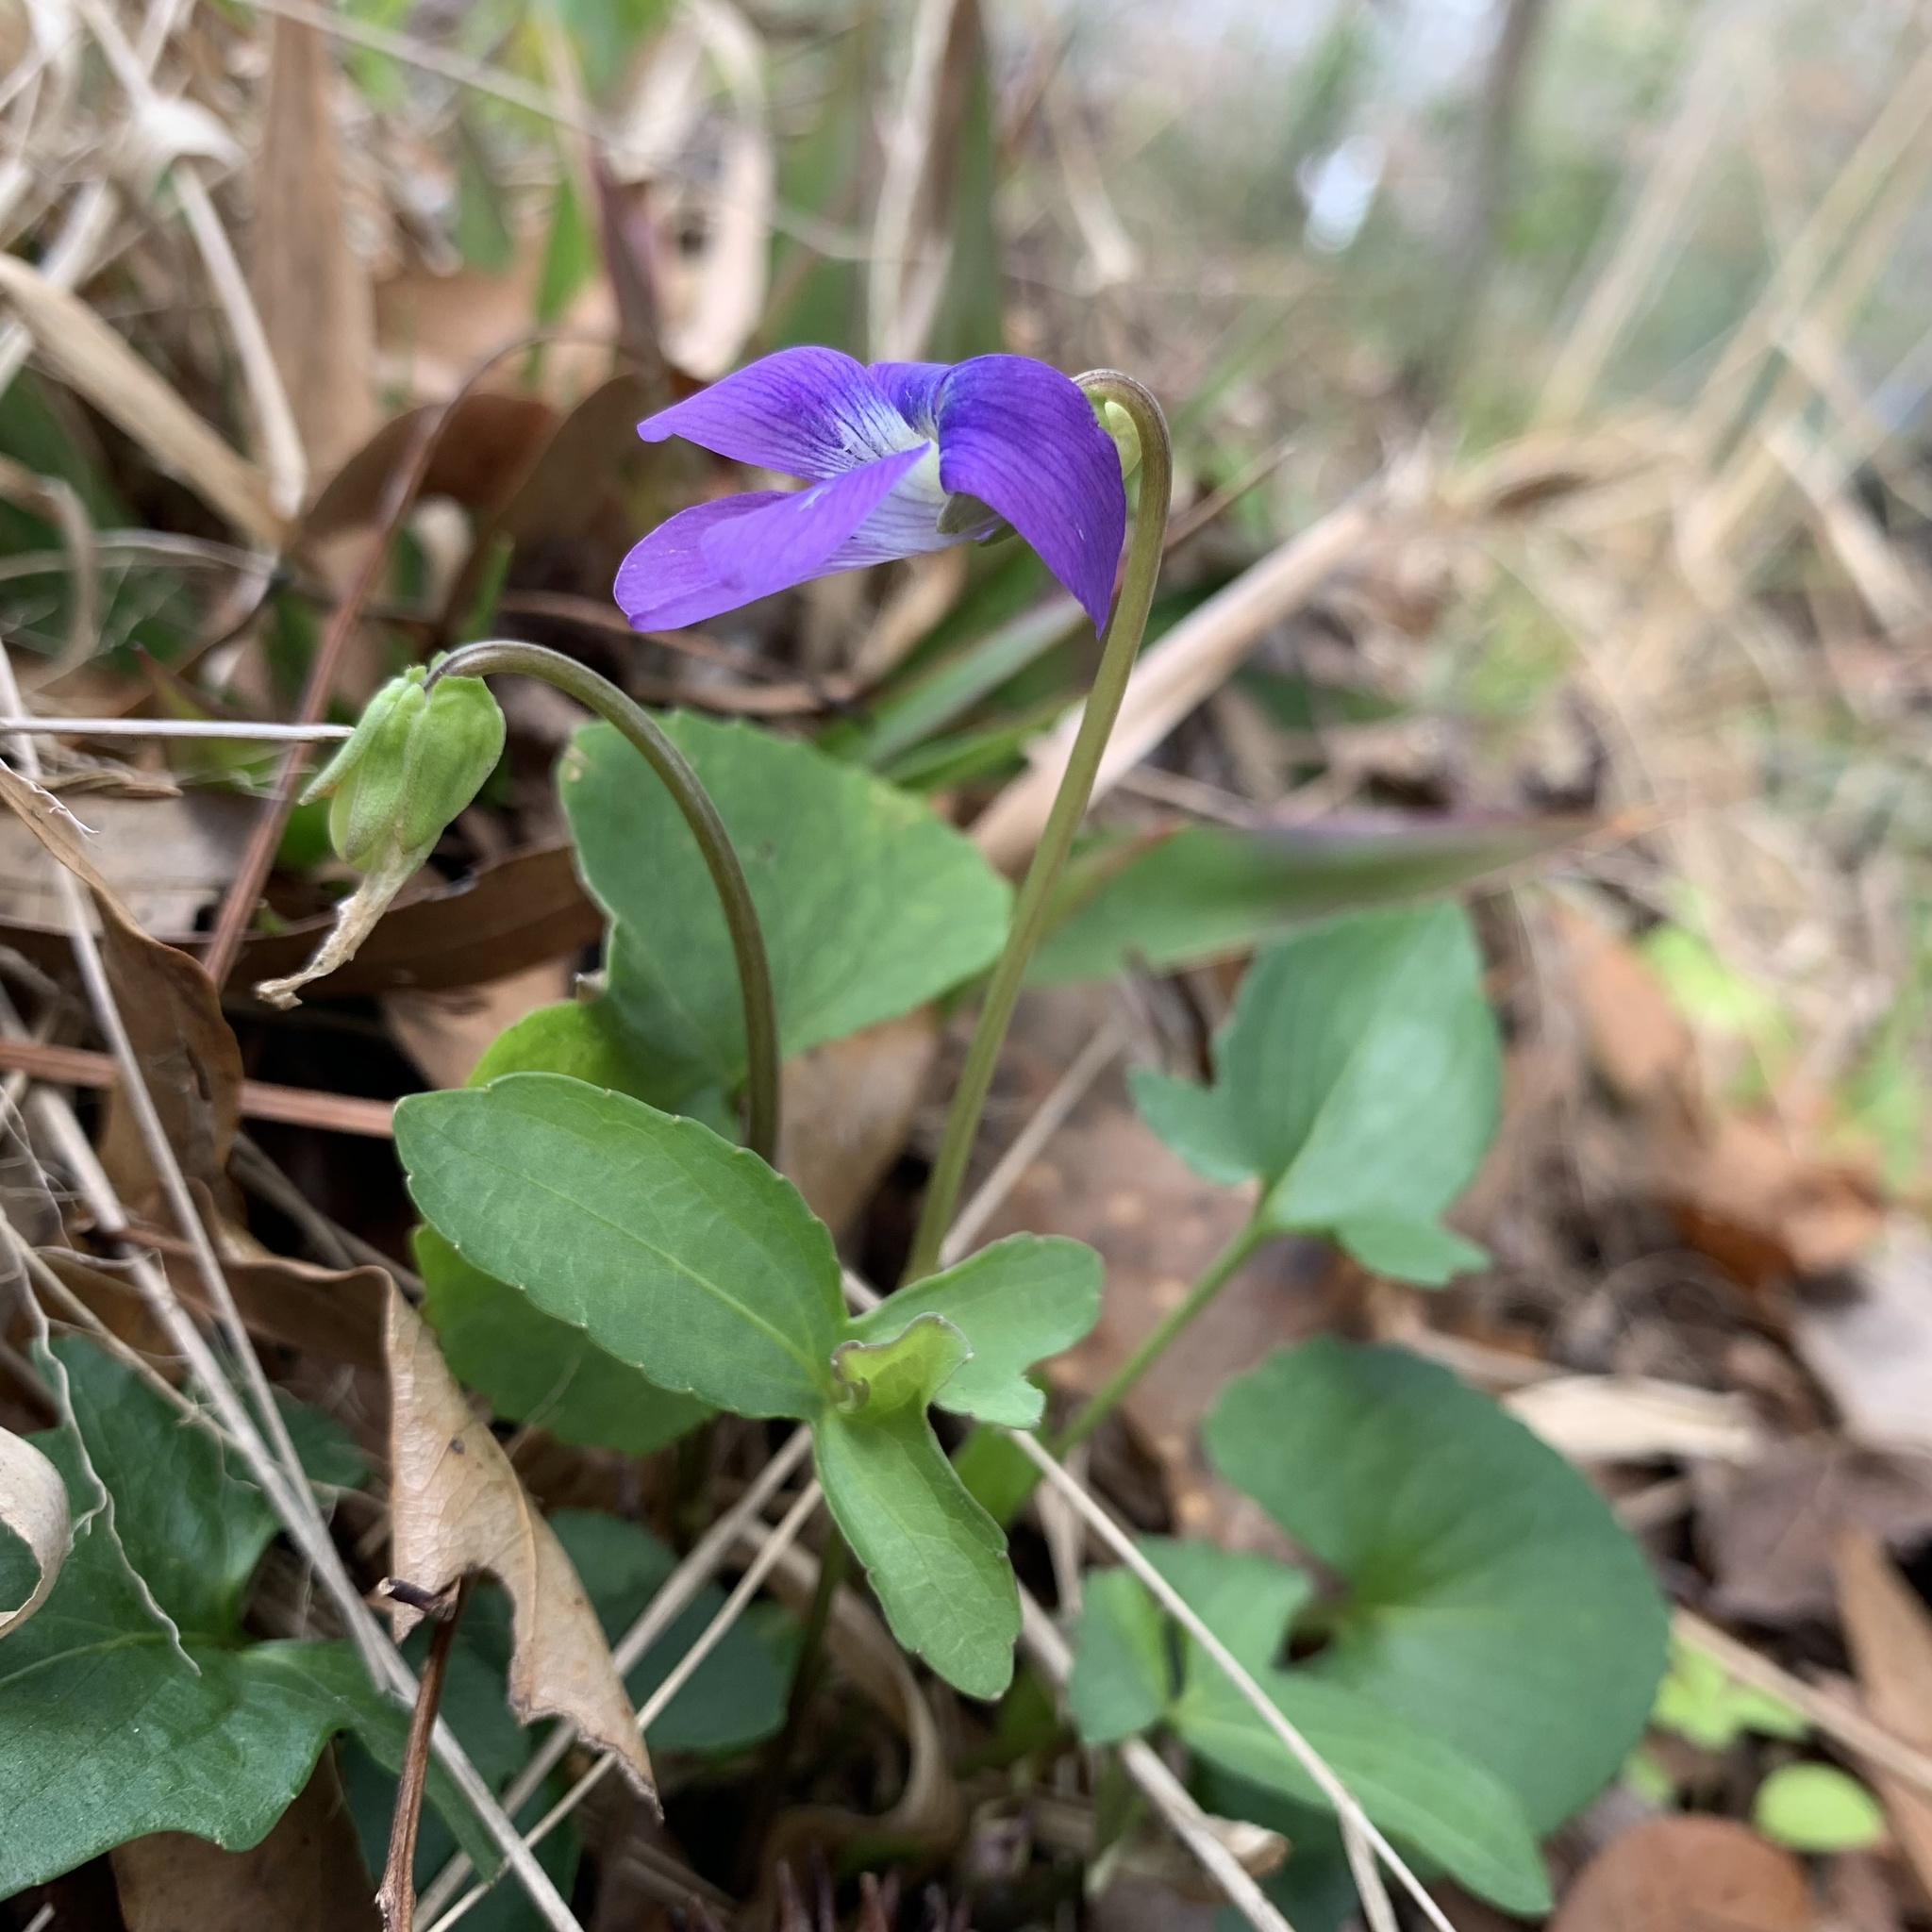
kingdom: Plantae
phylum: Tracheophyta
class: Magnoliopsida
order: Malpighiales
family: Violaceae
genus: Viola
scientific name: Viola palmata
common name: Early blue violet
